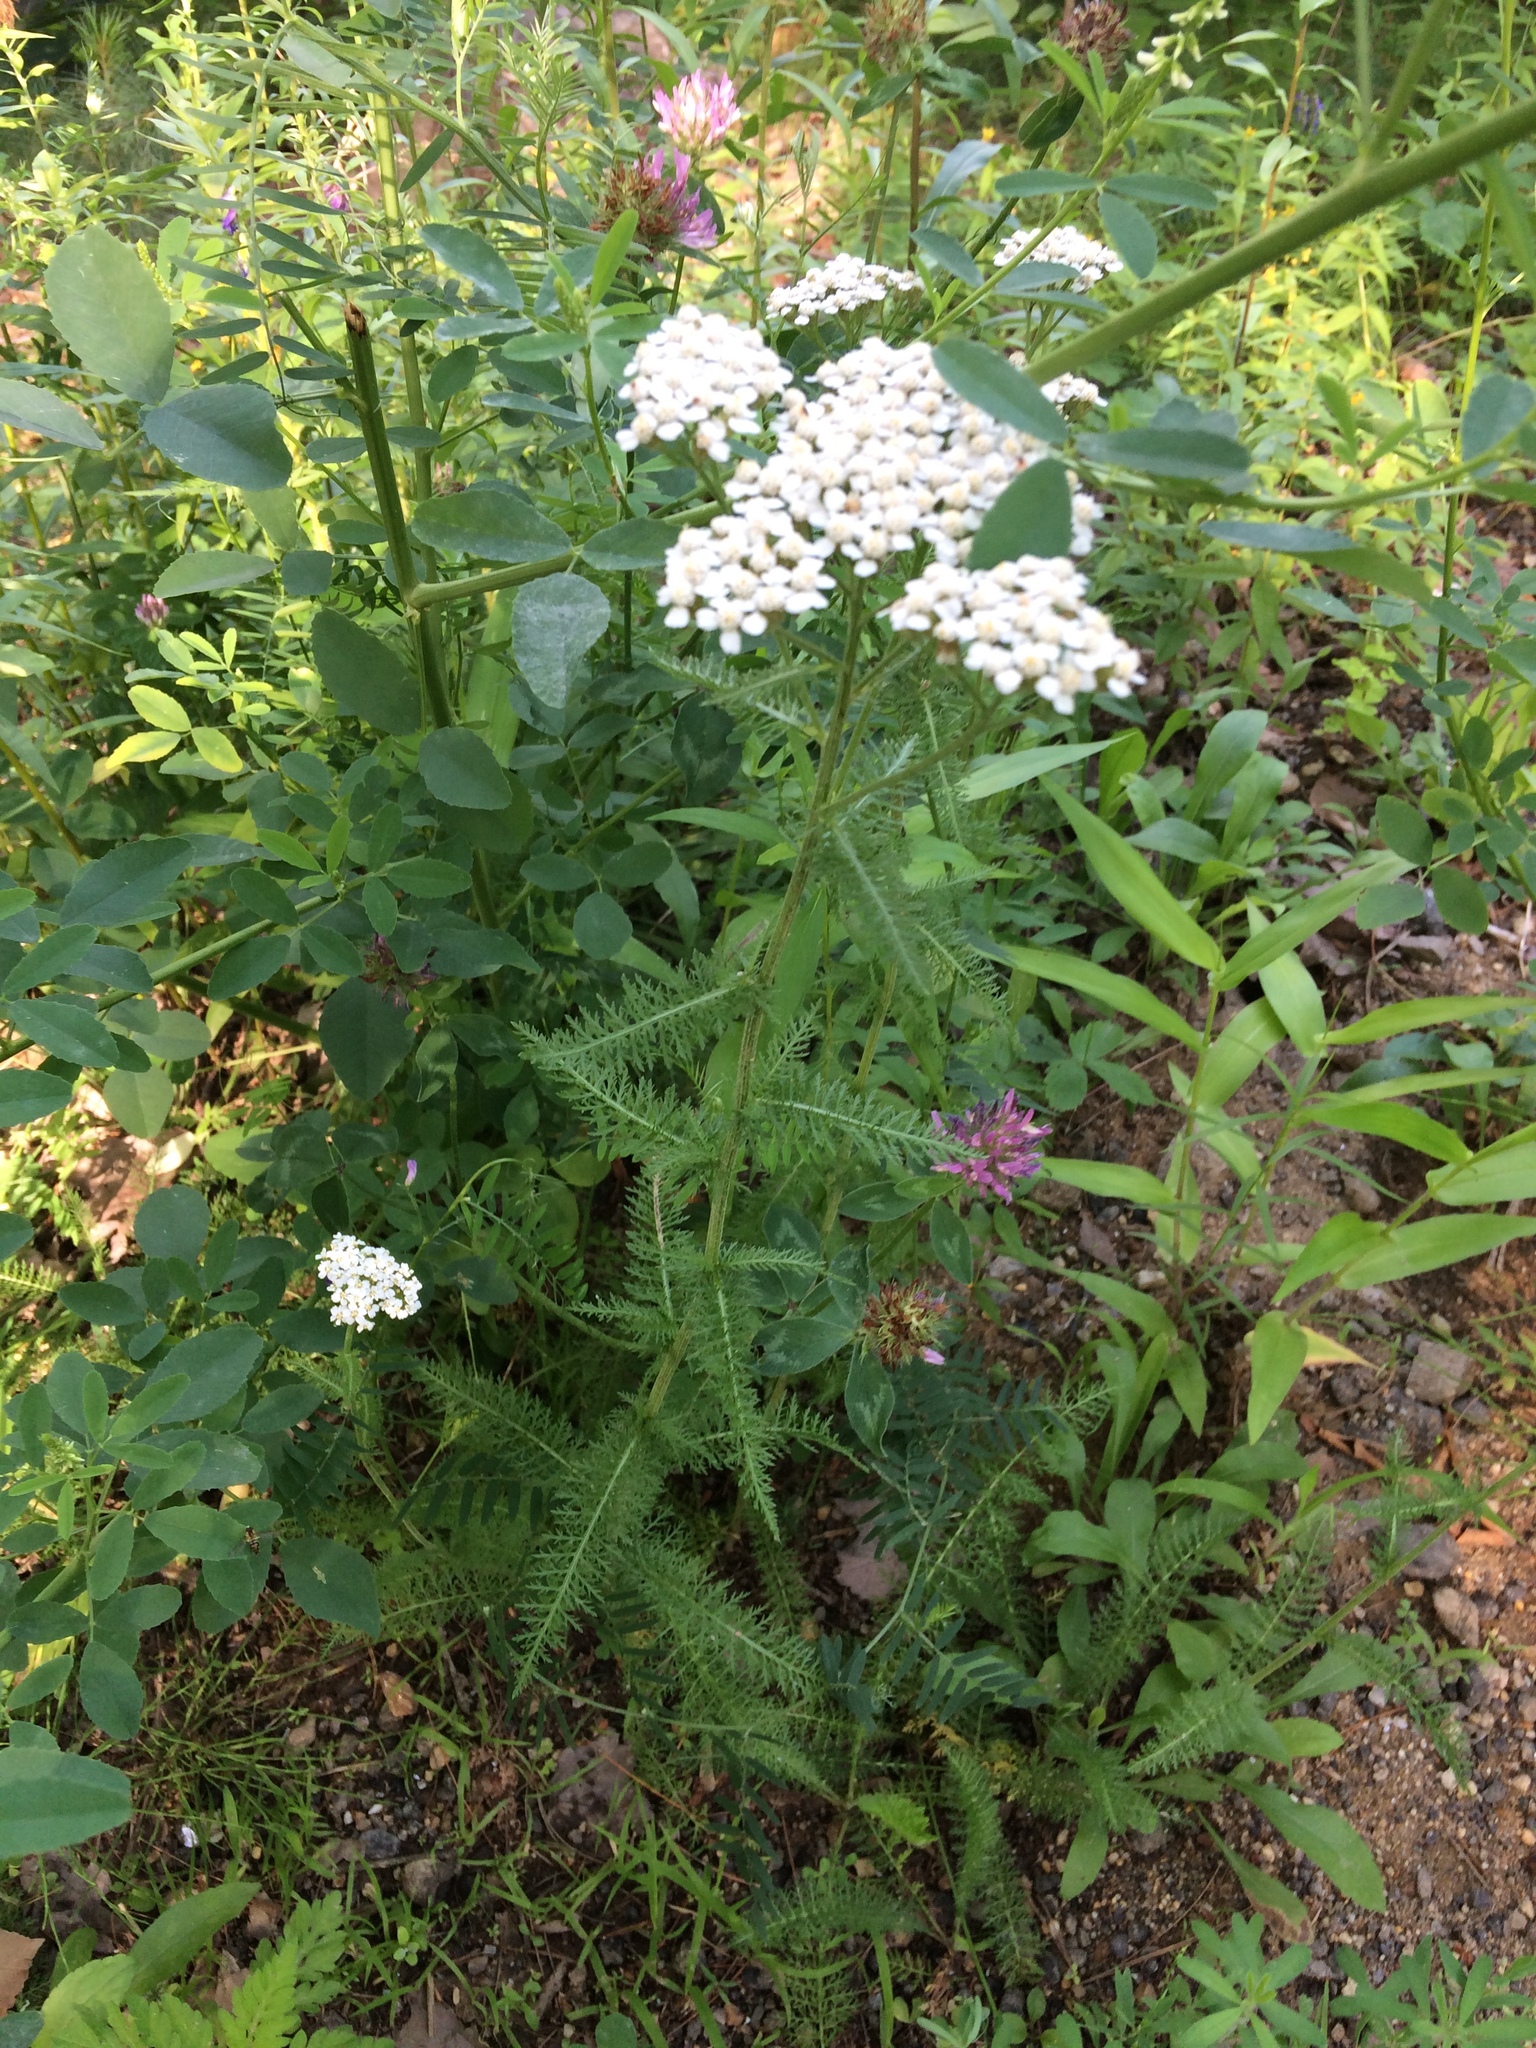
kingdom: Plantae
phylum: Tracheophyta
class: Magnoliopsida
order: Asterales
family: Asteraceae
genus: Achillea
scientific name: Achillea millefolium
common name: Yarrow
